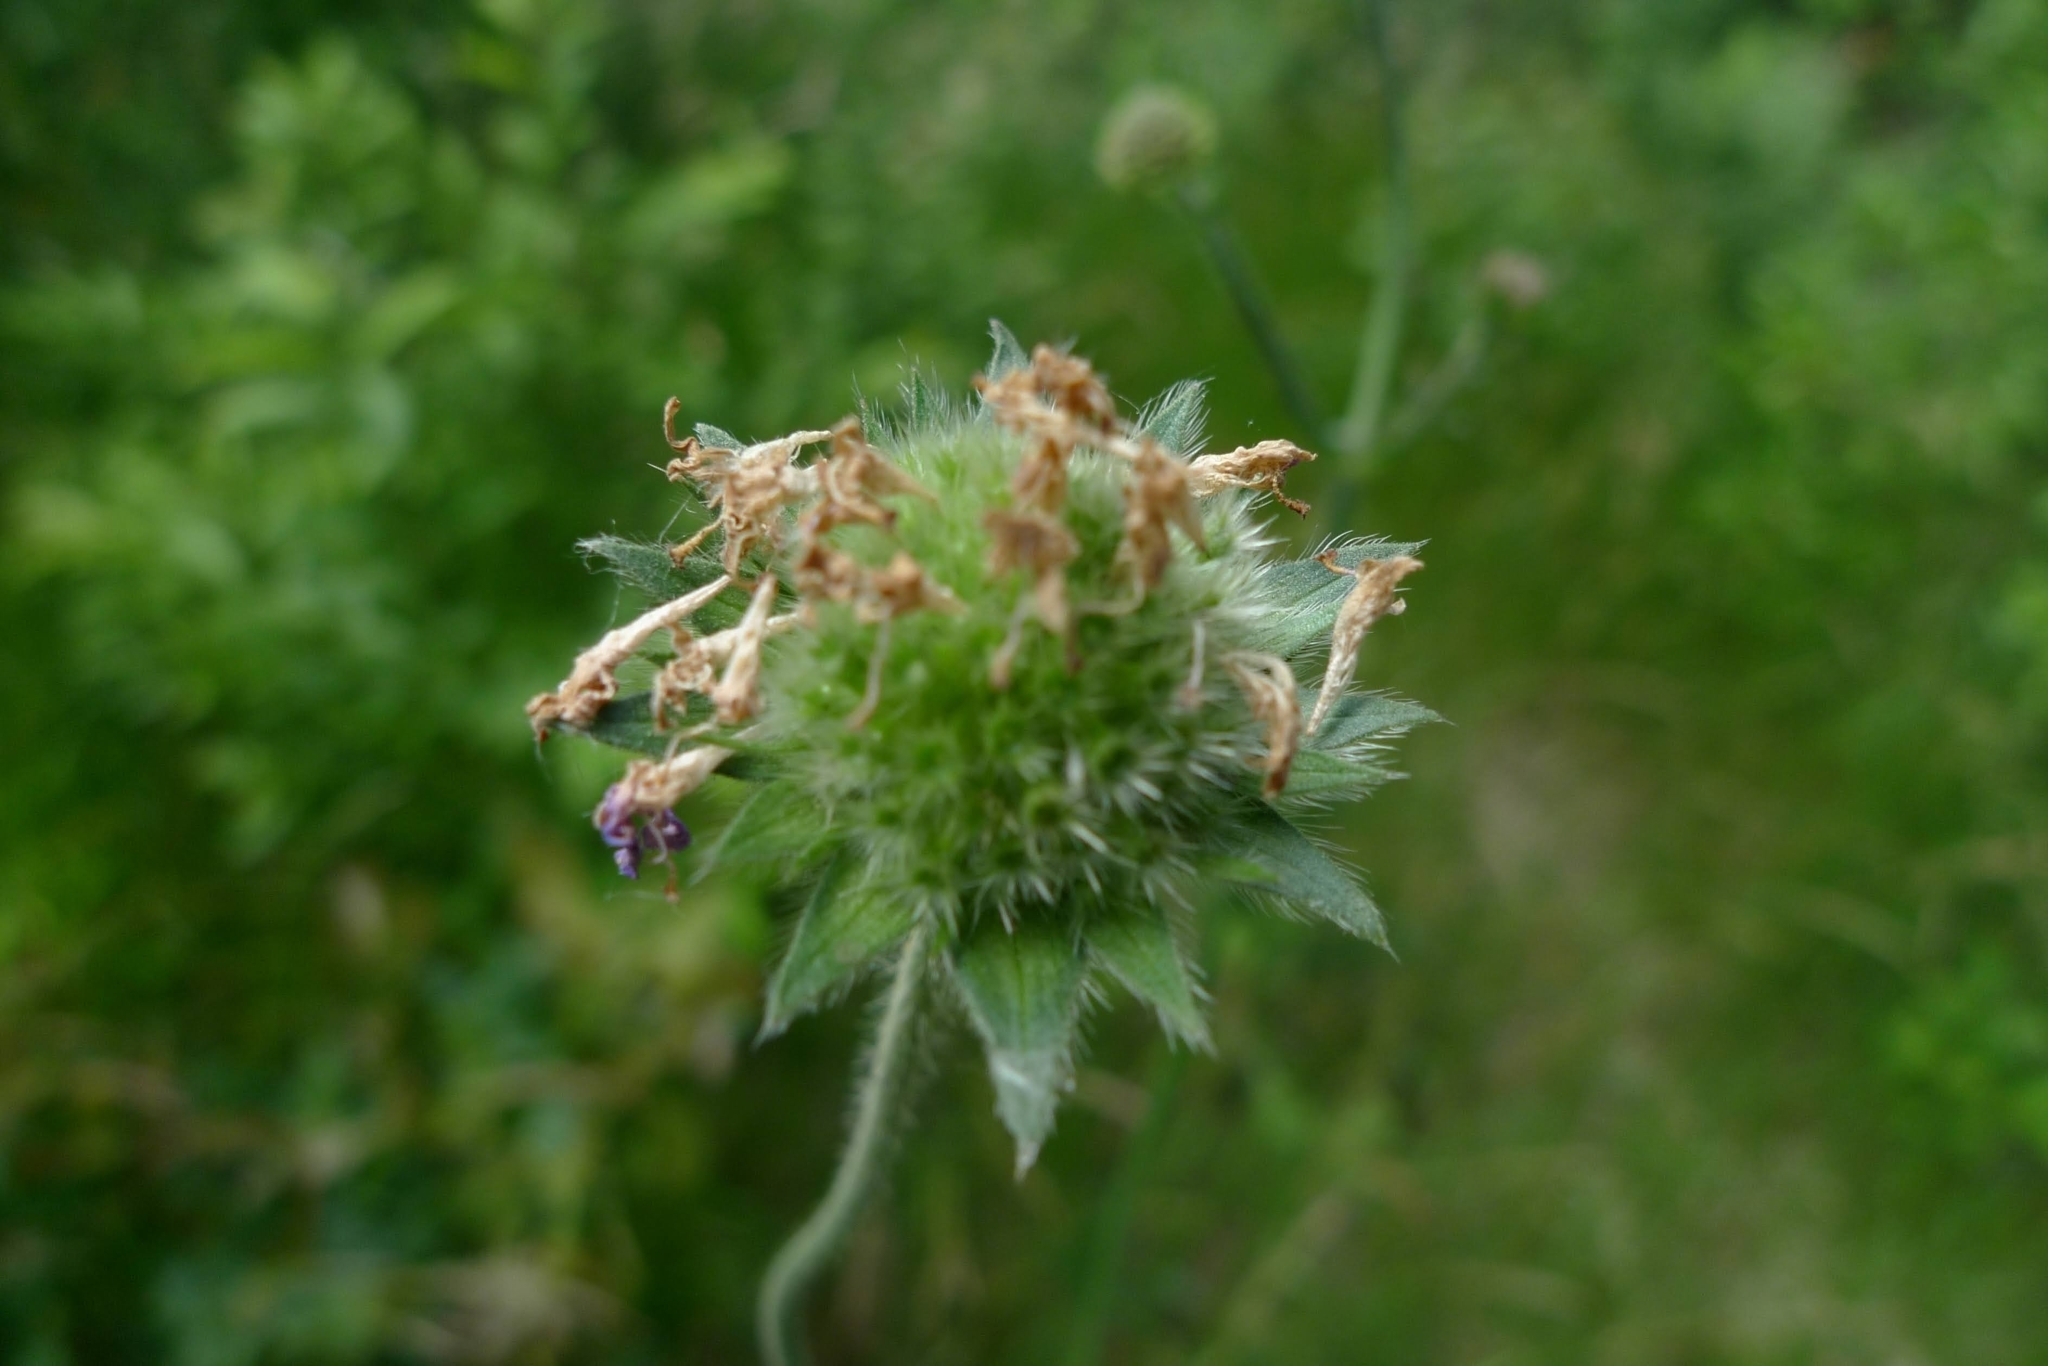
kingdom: Plantae
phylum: Tracheophyta
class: Magnoliopsida
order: Dipsacales
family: Caprifoliaceae
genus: Knautia
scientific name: Knautia arvensis
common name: Field scabiosa
